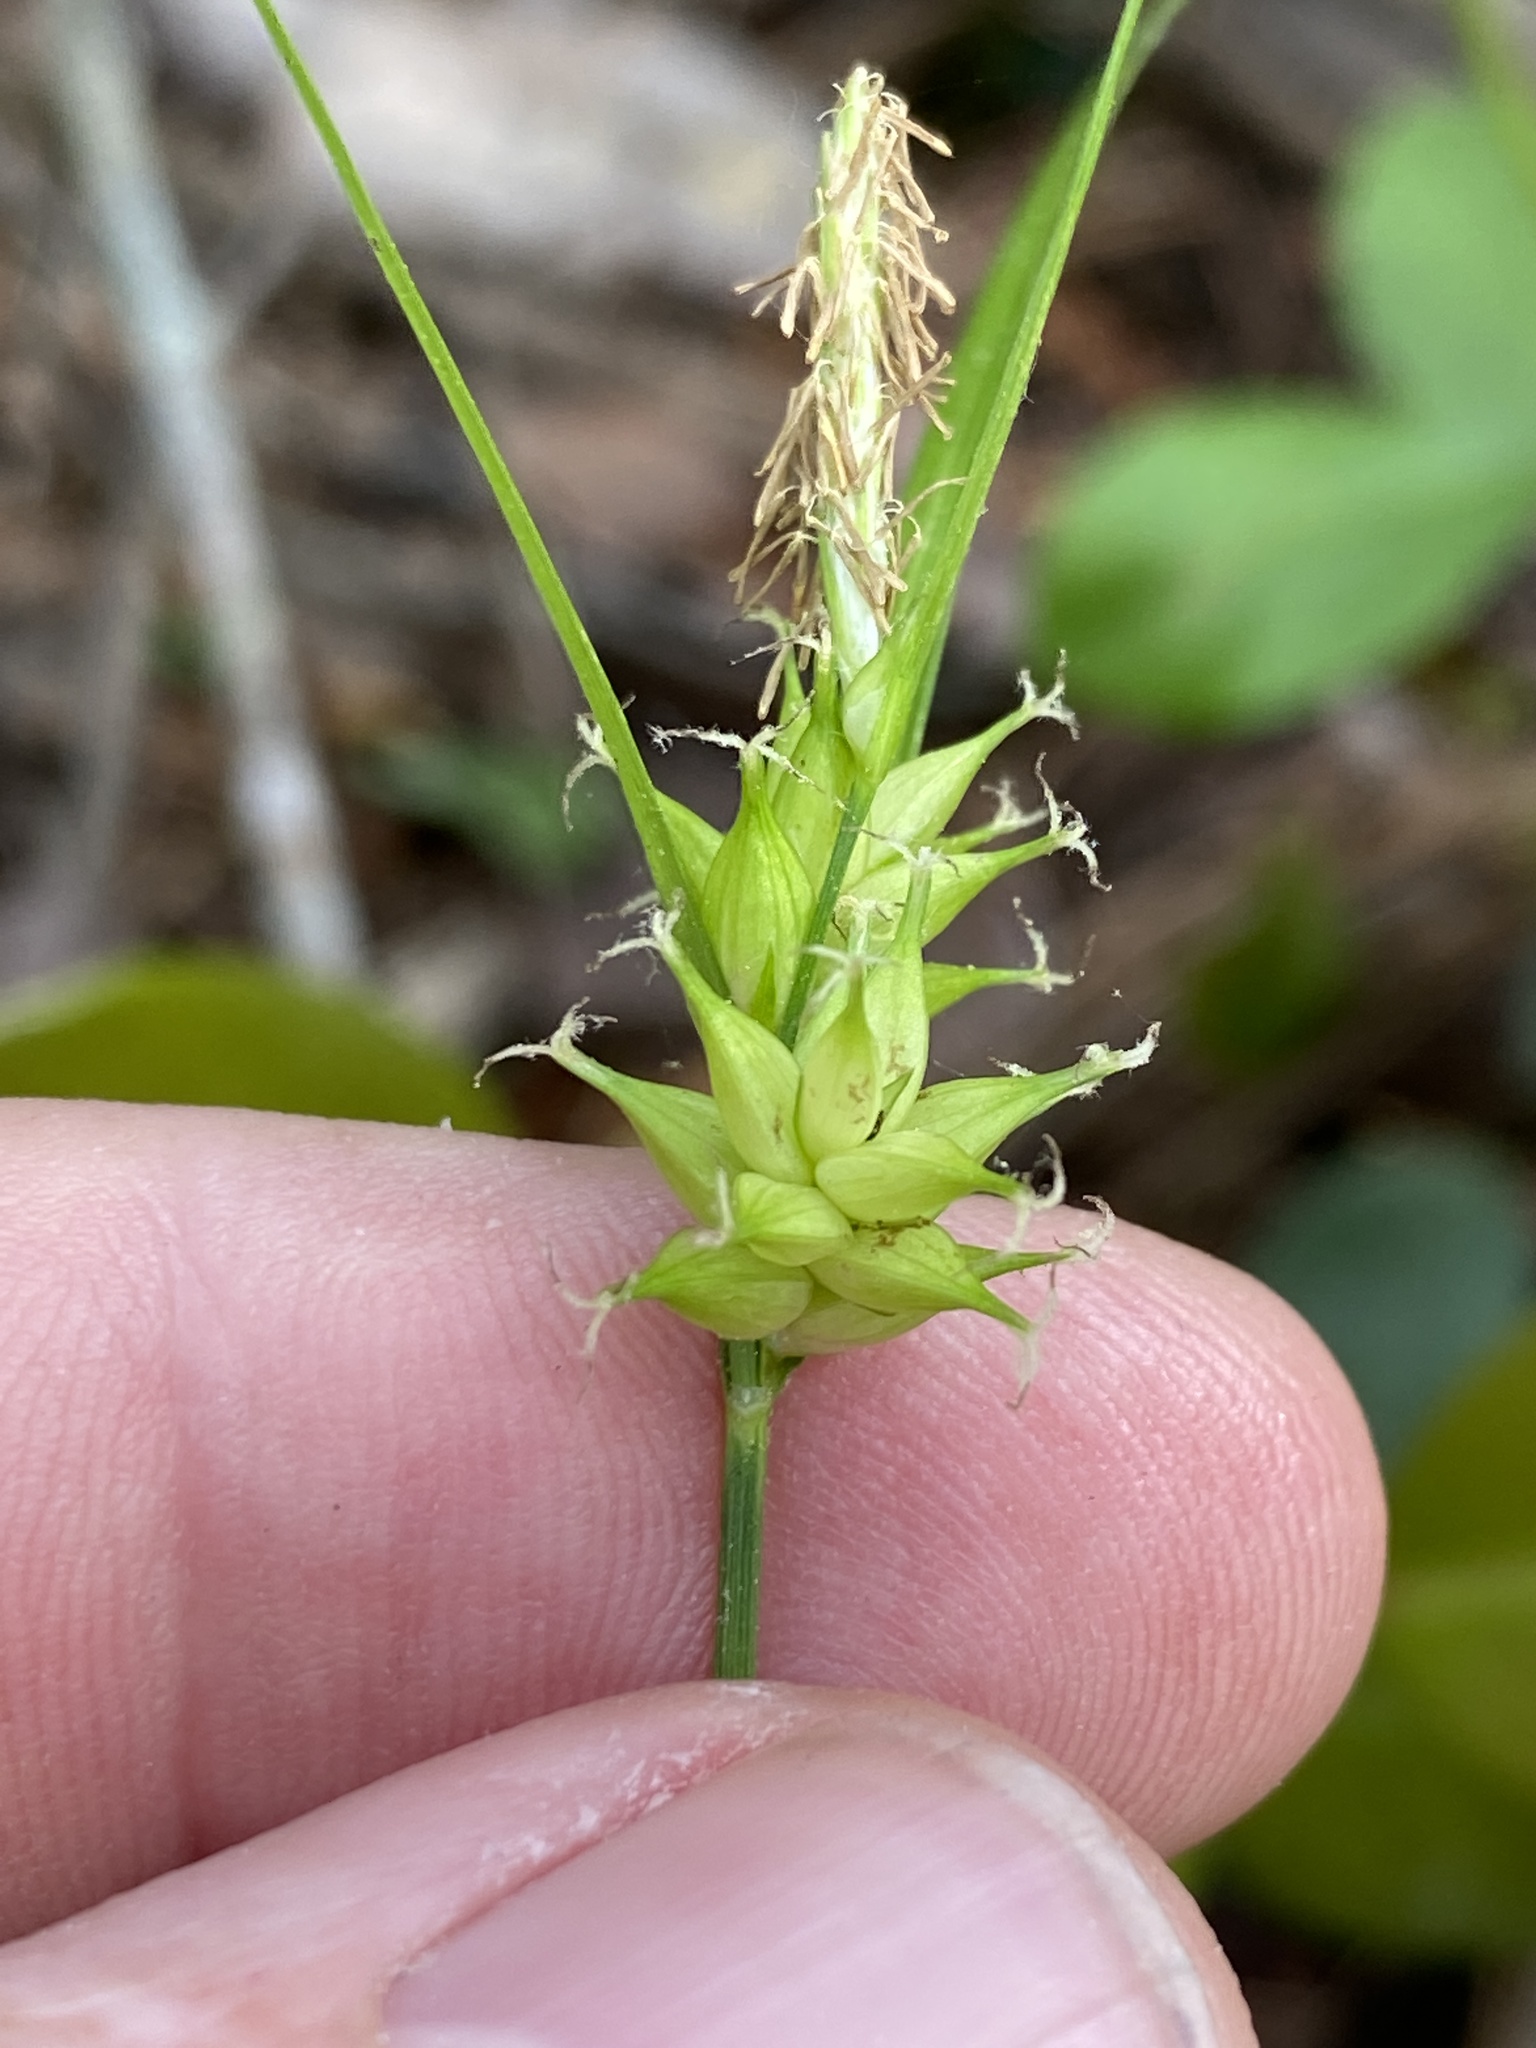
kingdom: Plantae
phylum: Tracheophyta
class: Liliopsida
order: Poales
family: Cyperaceae
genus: Carex
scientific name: Carex elliottii
